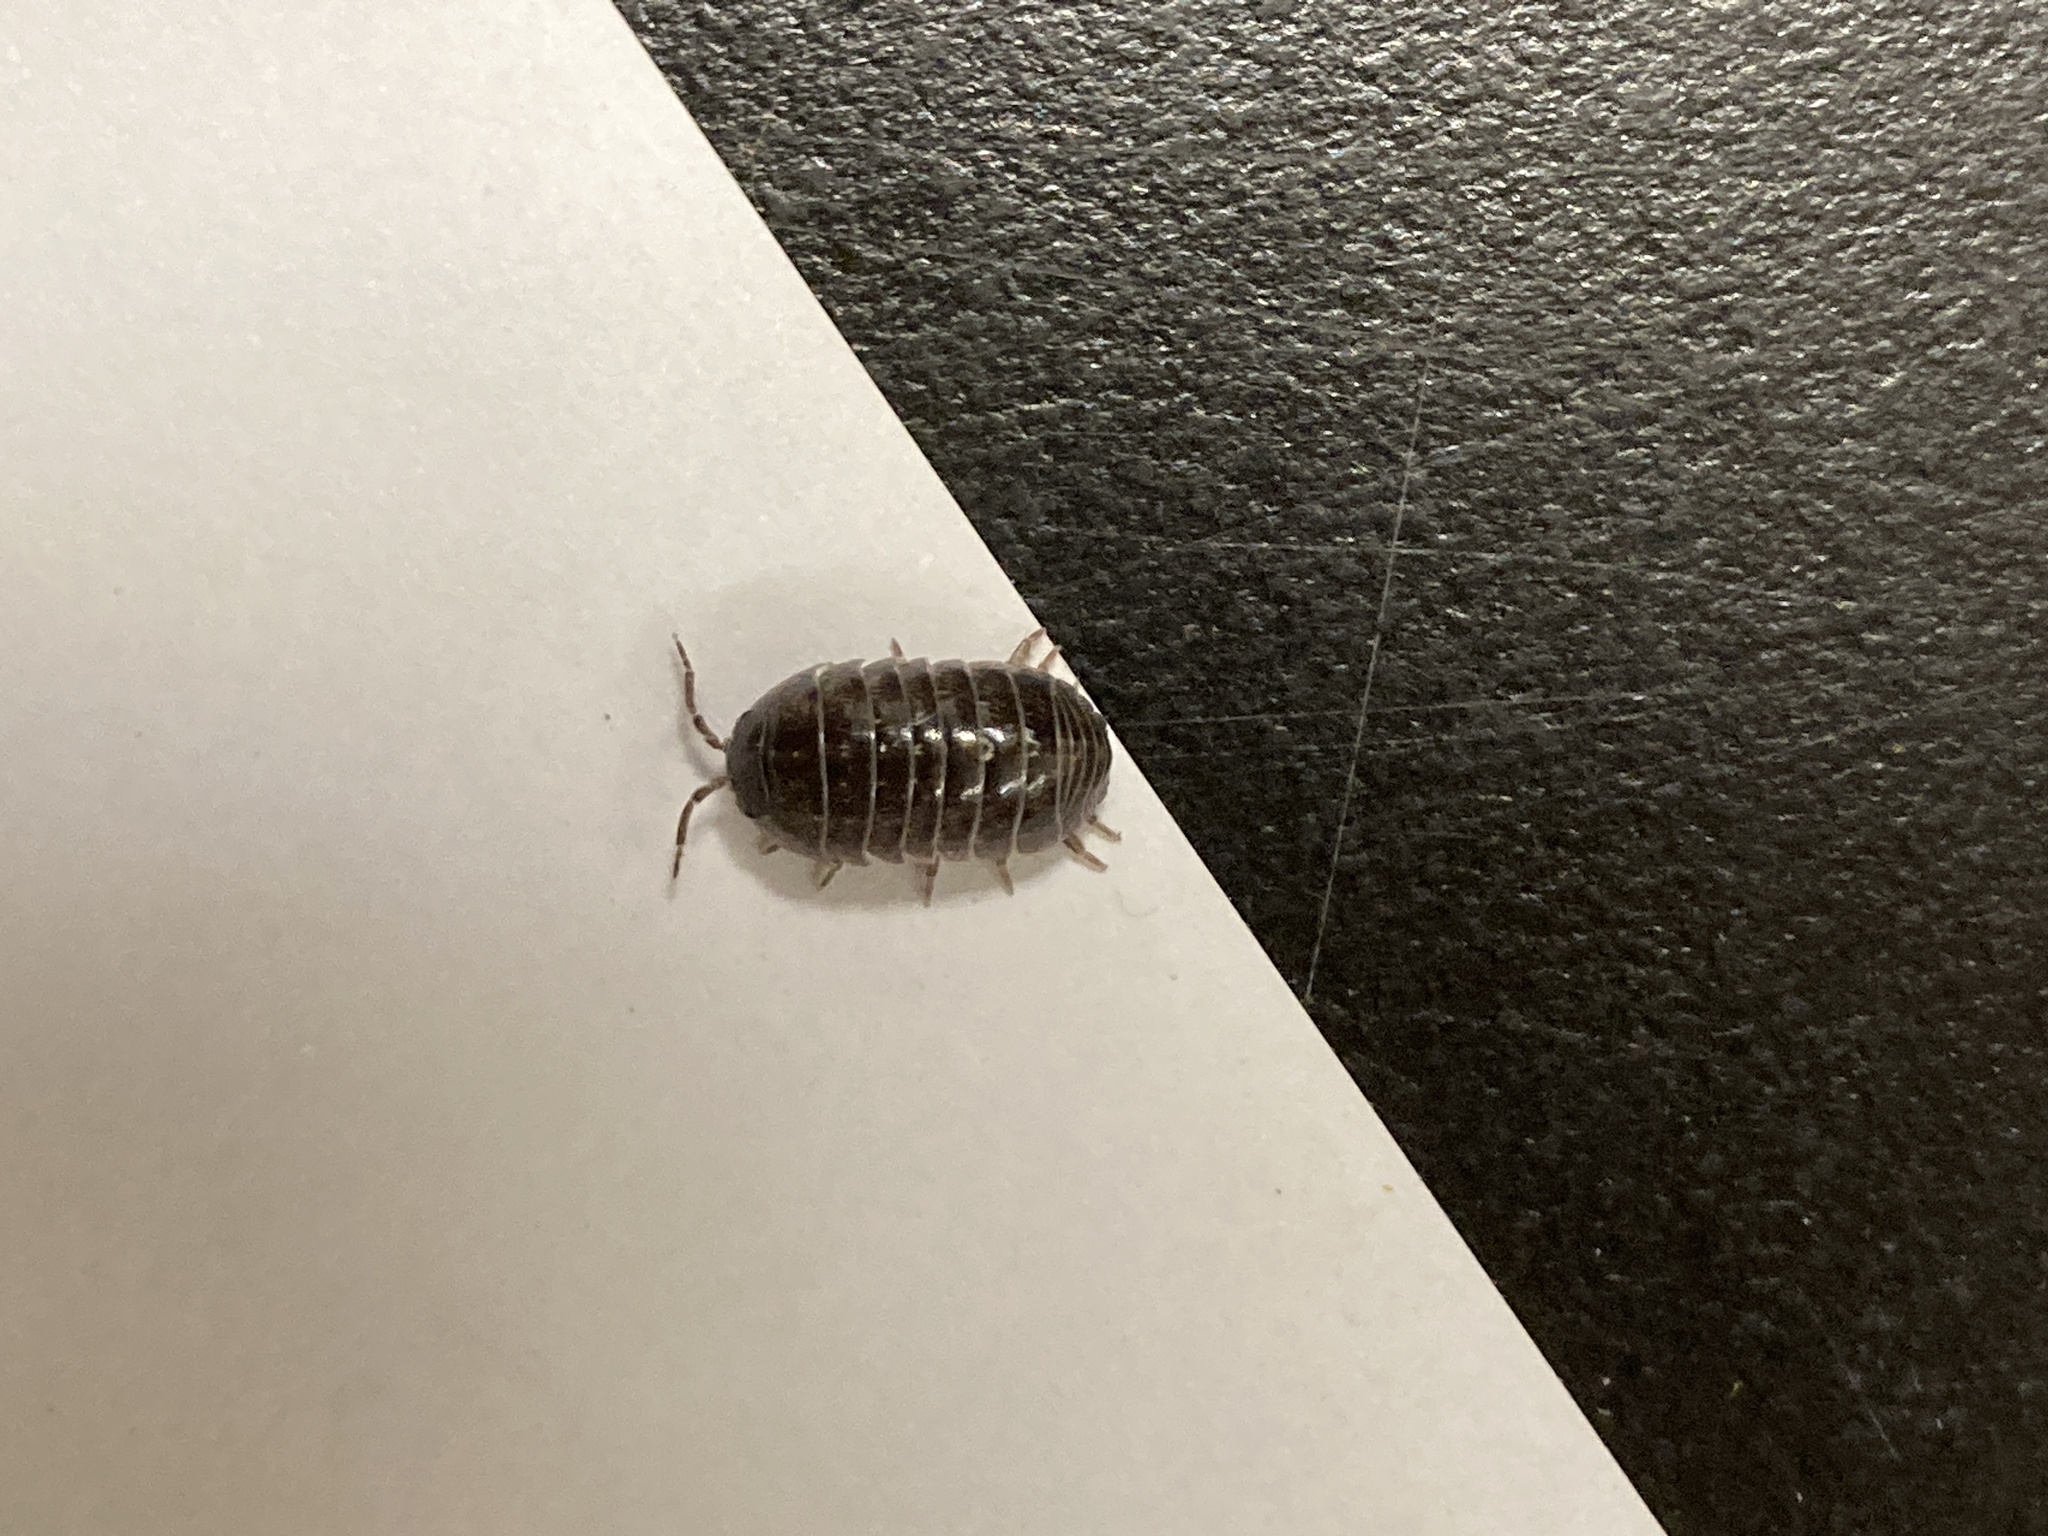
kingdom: Animalia
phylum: Arthropoda
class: Malacostraca
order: Isopoda
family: Armadillidiidae
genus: Armadillidium
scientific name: Armadillidium vulgare
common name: Common pill woodlouse
